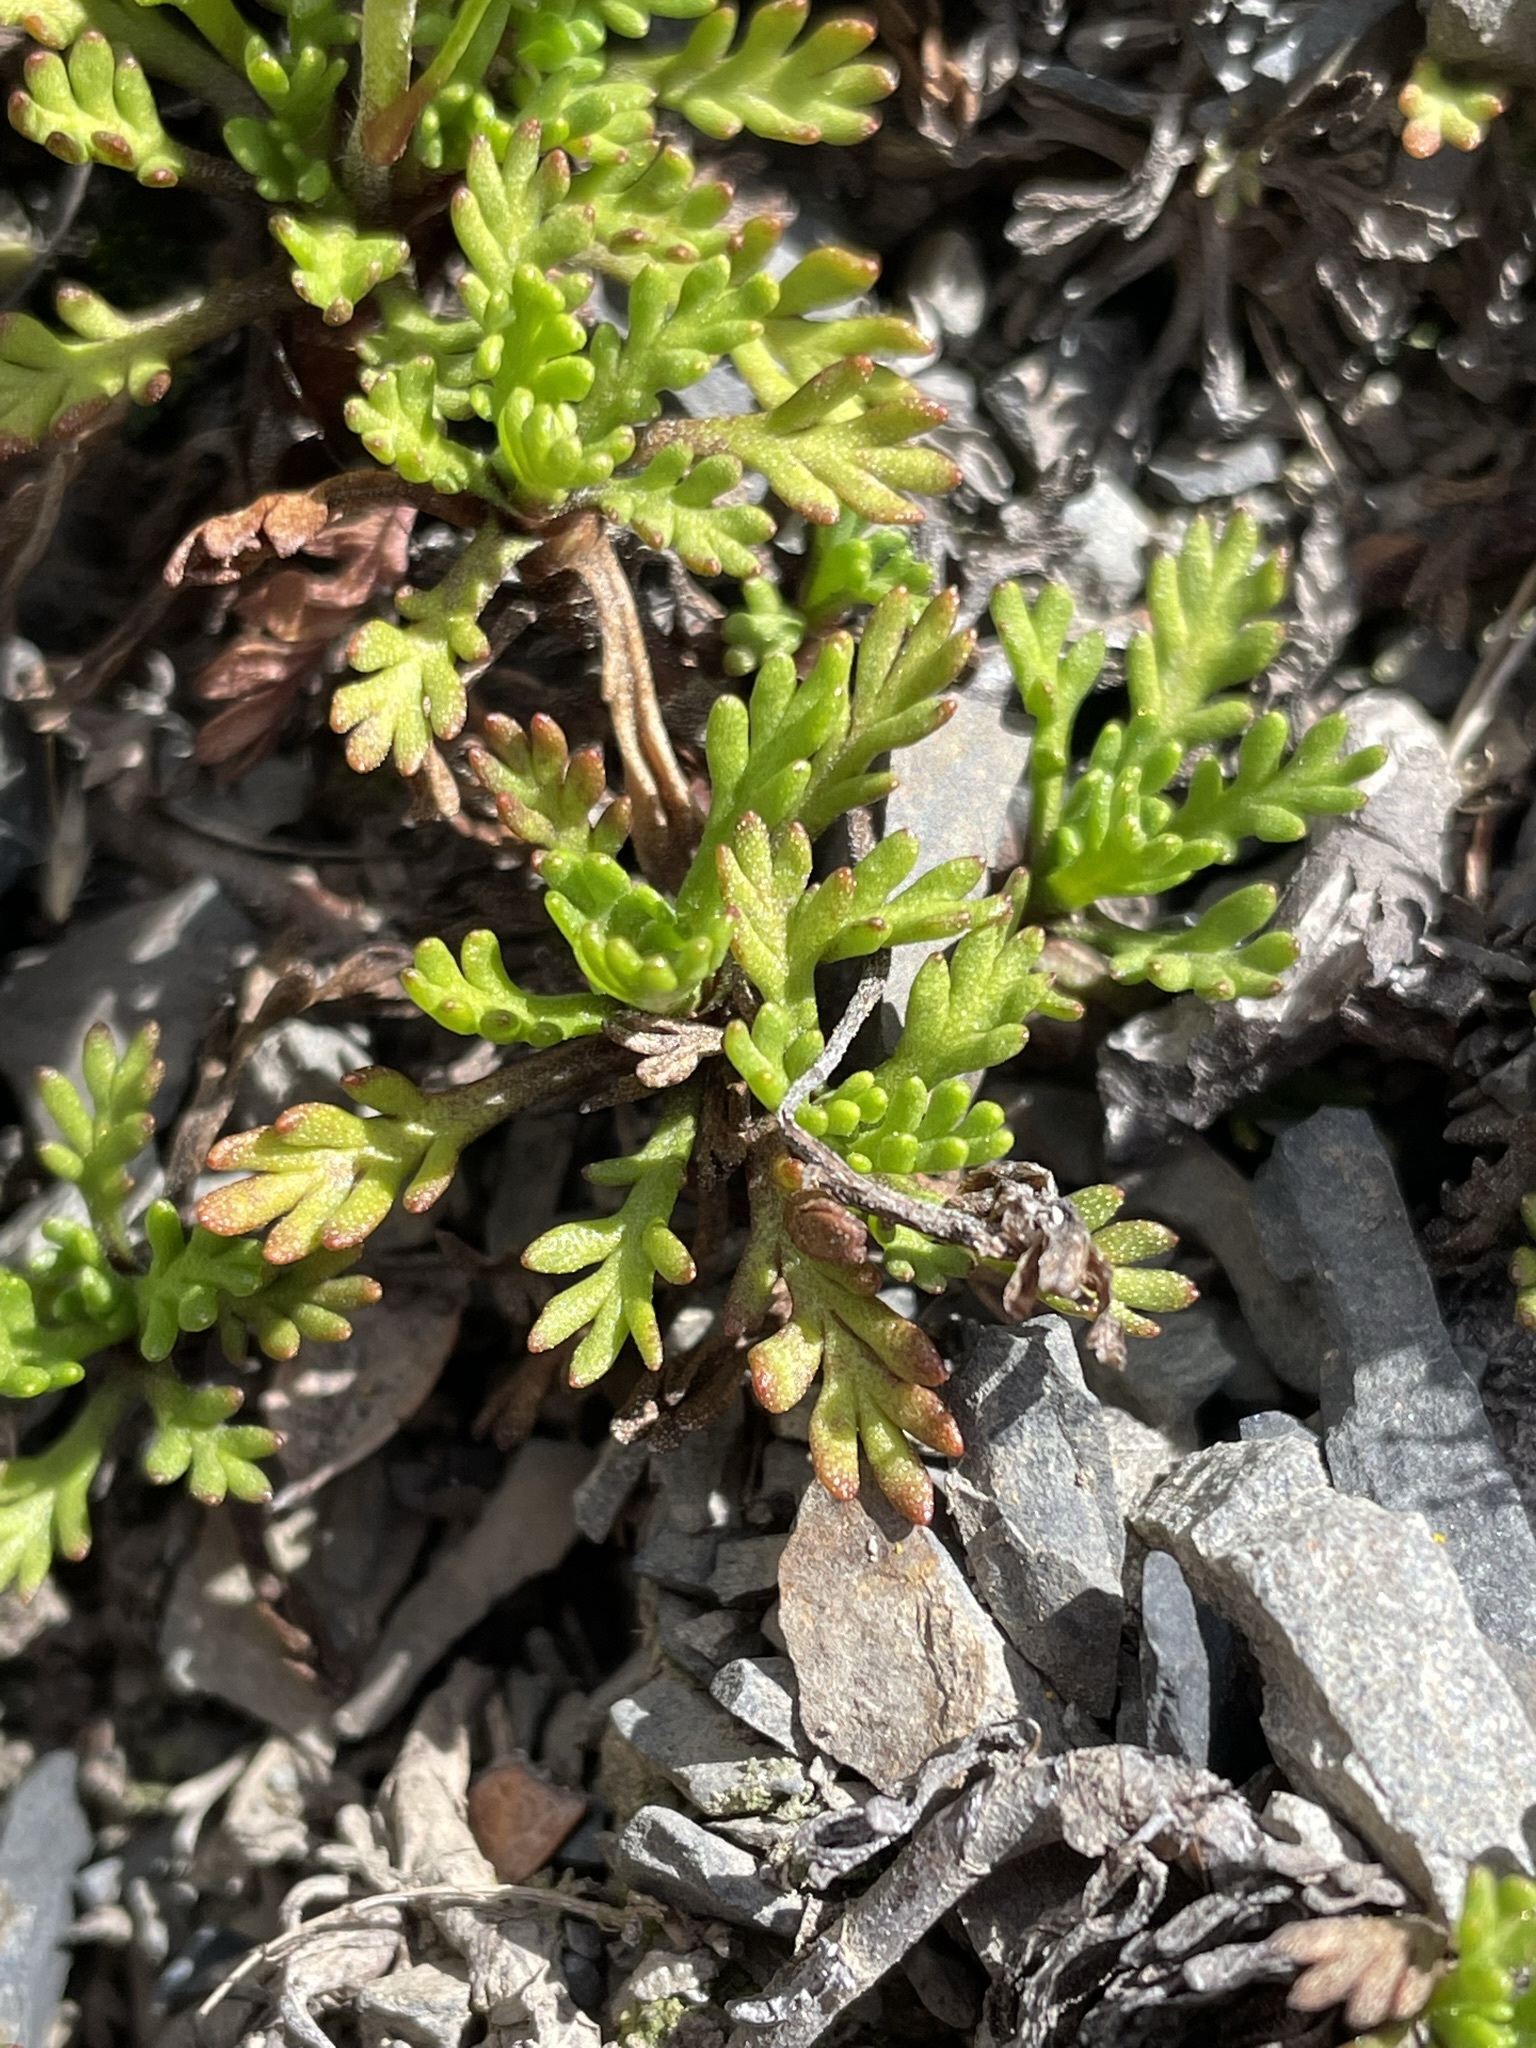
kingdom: Plantae
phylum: Tracheophyta
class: Magnoliopsida
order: Asterales
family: Asteraceae
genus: Leptinella
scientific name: Leptinella pyrethrifolia
